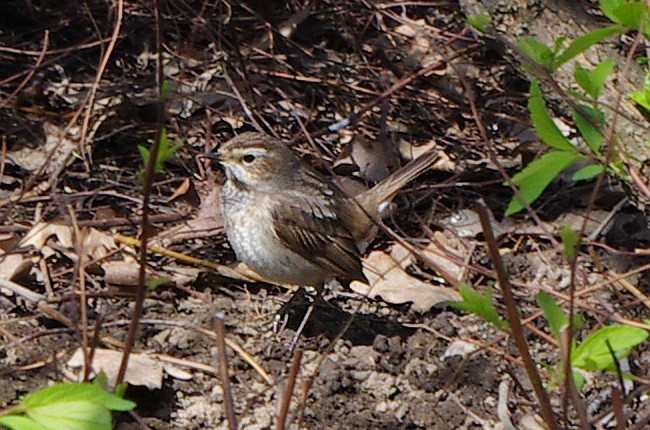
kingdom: Animalia
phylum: Chordata
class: Aves
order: Passeriformes
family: Muscicapidae
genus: Luscinia
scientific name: Luscinia svecica
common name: Bluethroat
